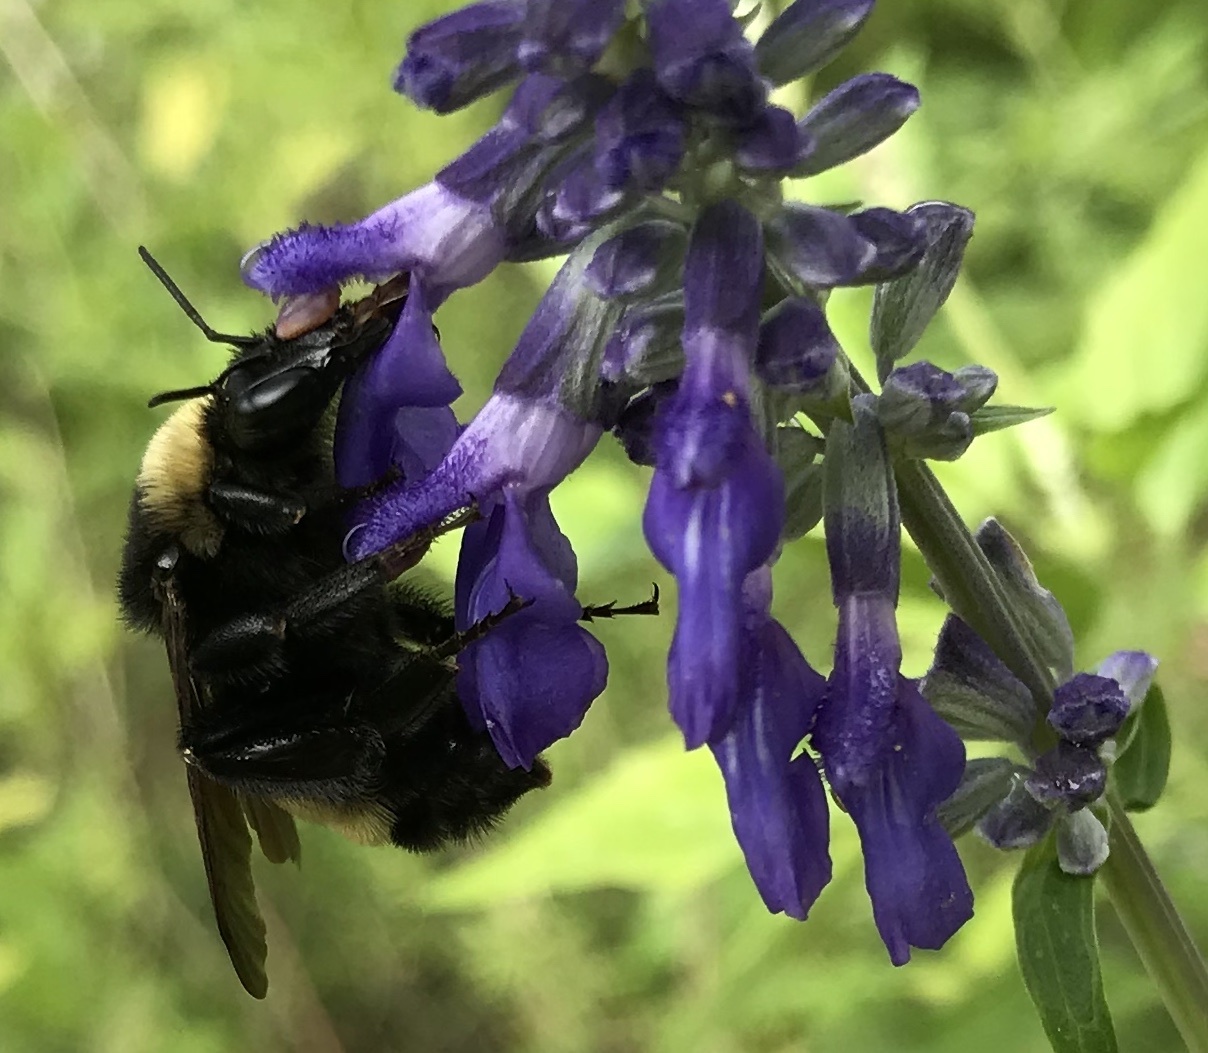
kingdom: Animalia
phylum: Arthropoda
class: Insecta
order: Hymenoptera
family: Apidae
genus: Bombus
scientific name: Bombus pensylvanicus
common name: Bumble bee
